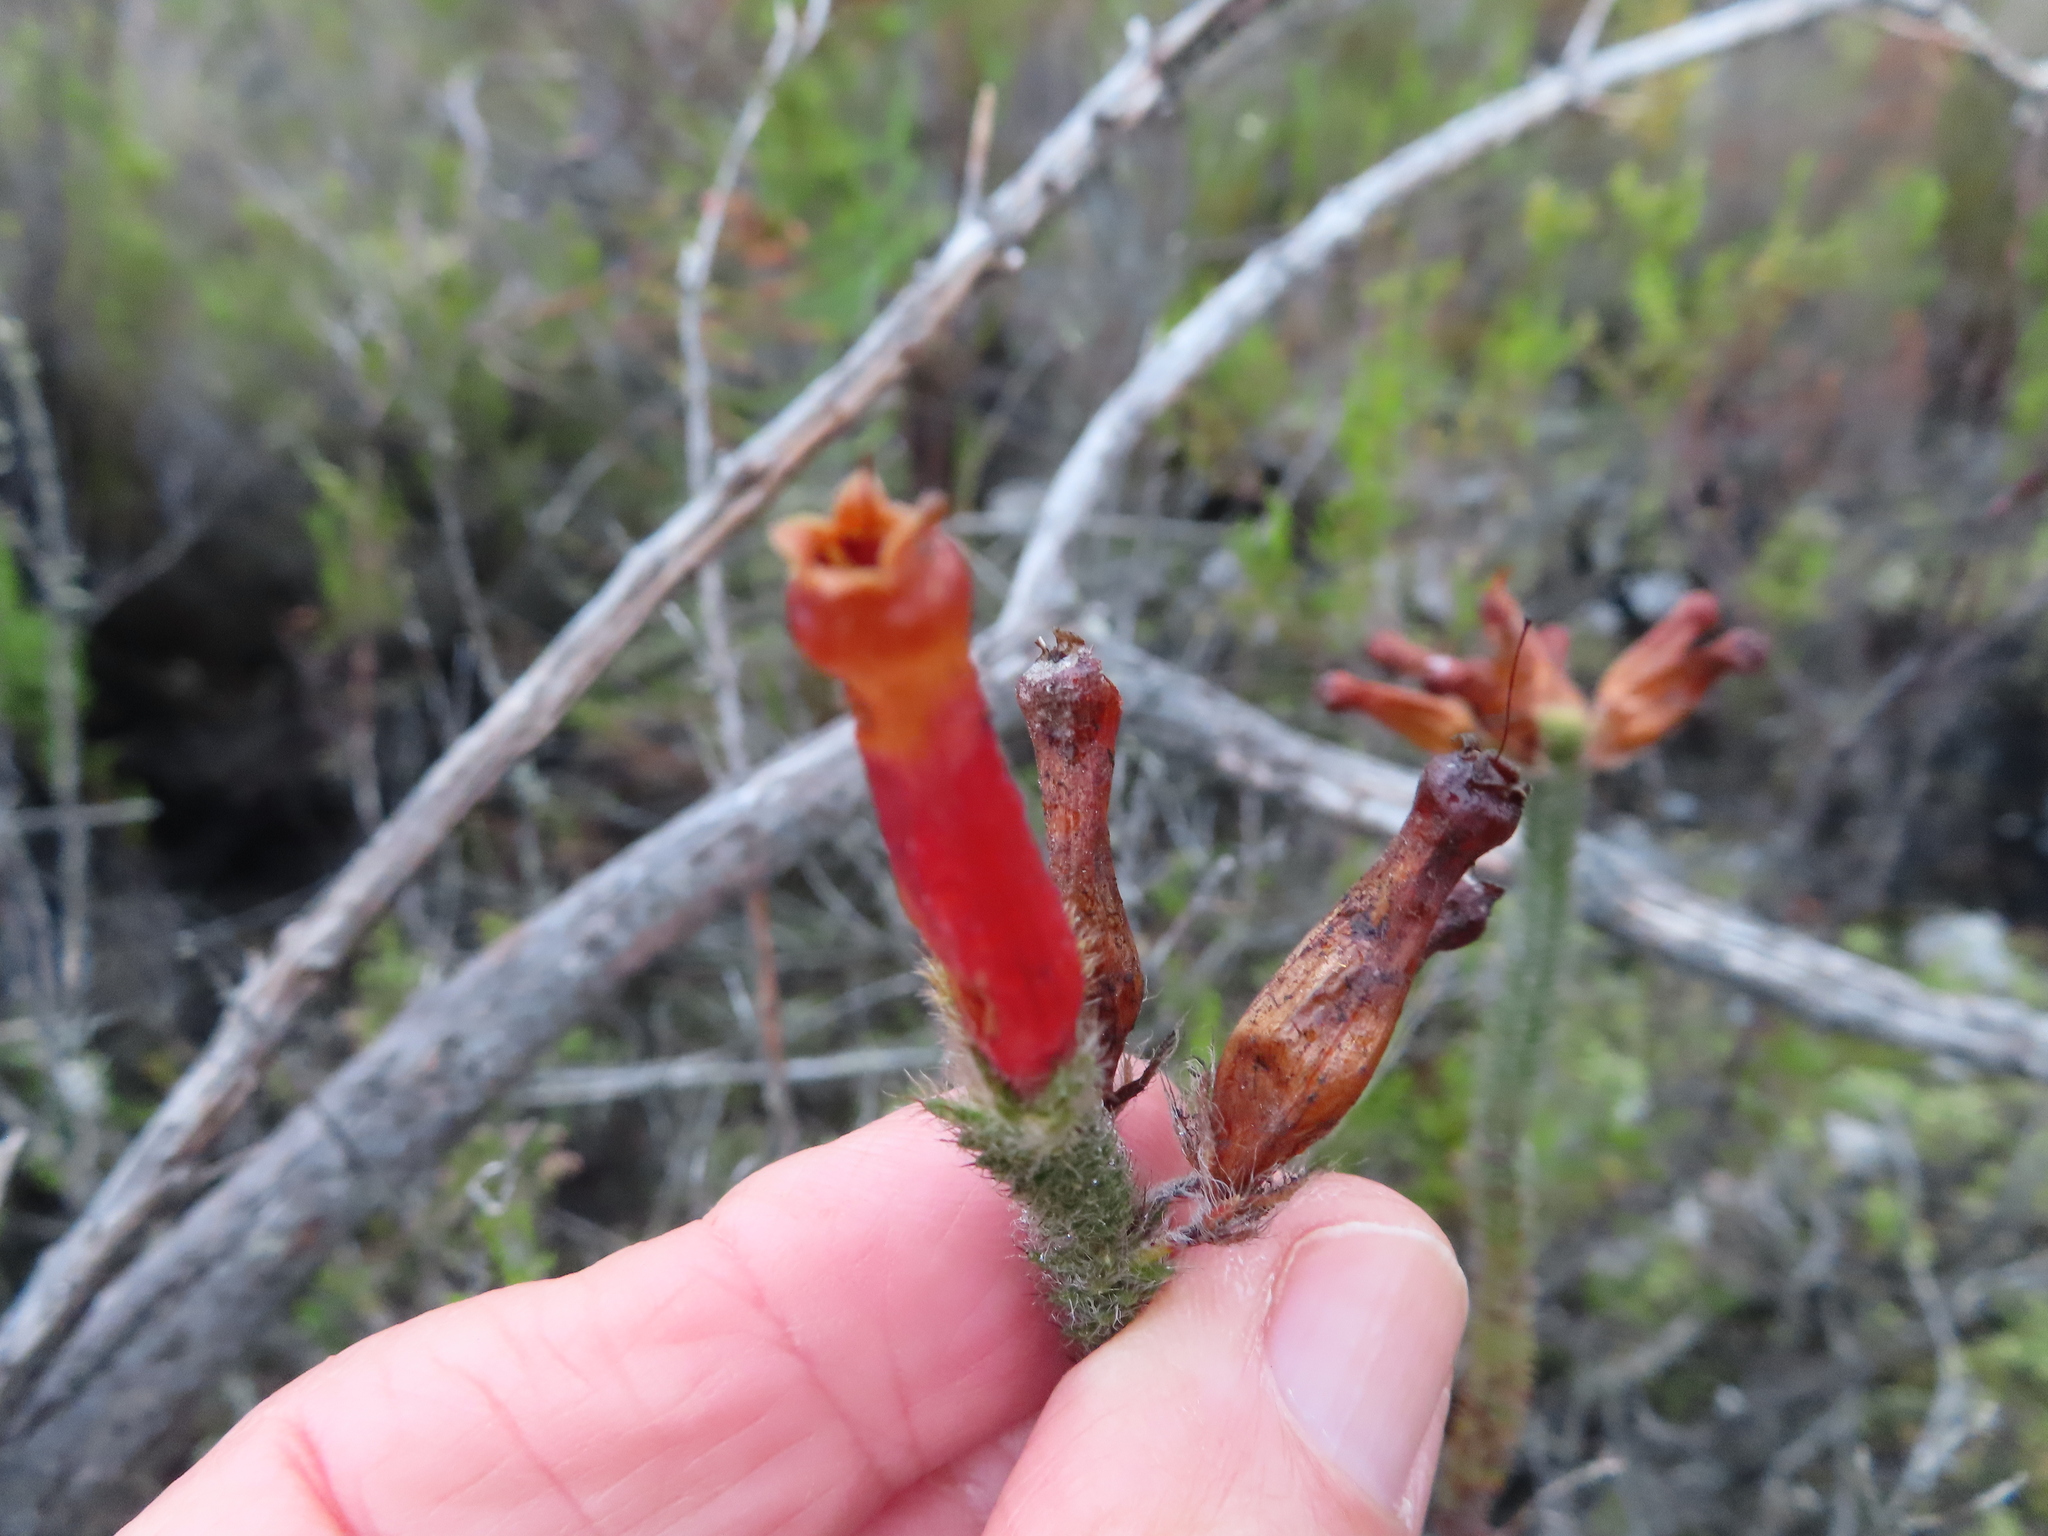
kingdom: Plantae
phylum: Tracheophyta
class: Magnoliopsida
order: Ericales
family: Ericaceae
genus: Erica
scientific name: Erica massonii
